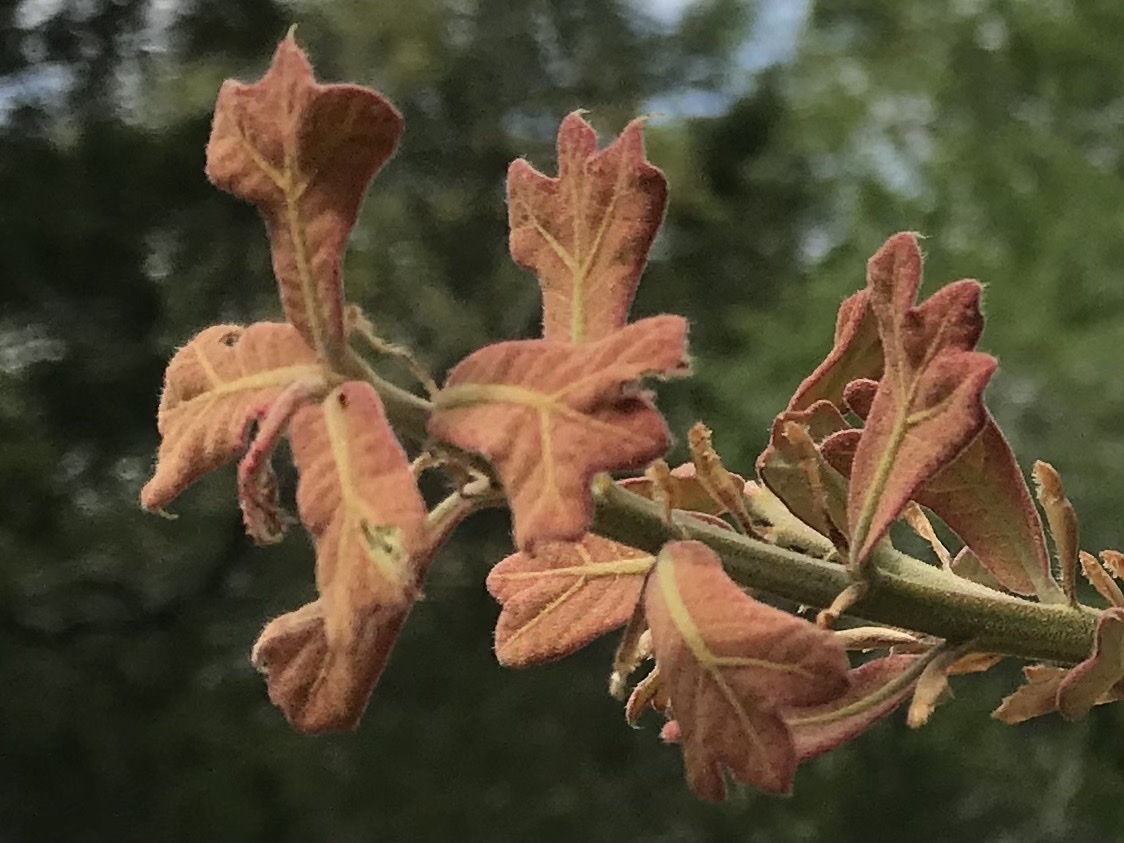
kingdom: Plantae
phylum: Tracheophyta
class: Magnoliopsida
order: Fagales
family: Fagaceae
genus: Quercus
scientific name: Quercus marilandica
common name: Blackjack oak
